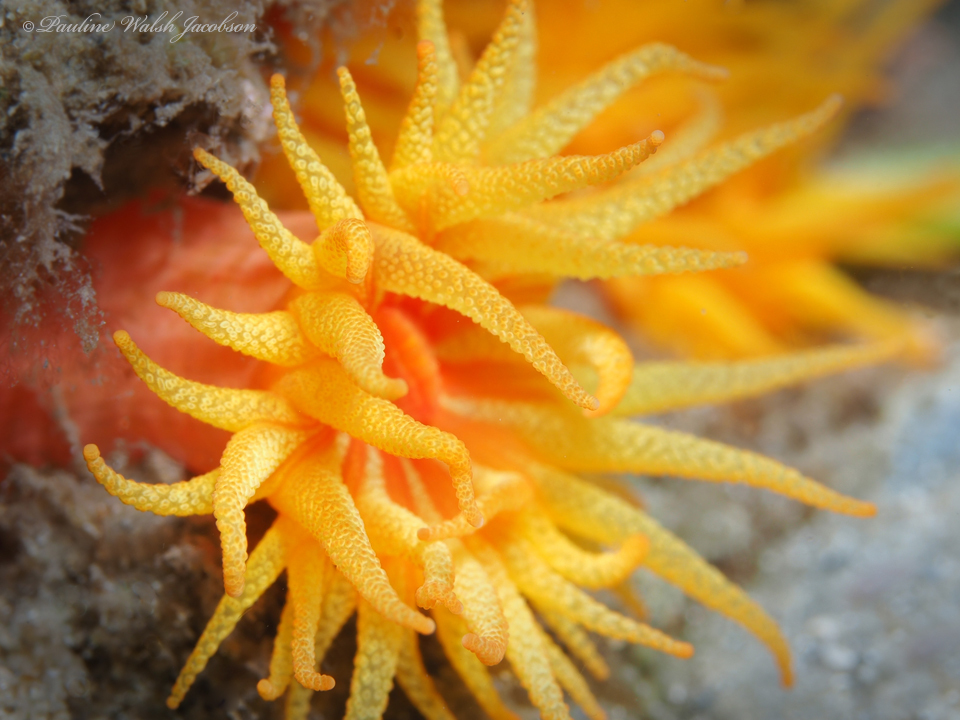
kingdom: Animalia
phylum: Cnidaria
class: Anthozoa
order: Scleractinia
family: Dendrophylliidae
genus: Tubastraea
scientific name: Tubastraea coccinea
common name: Orange cup coral
